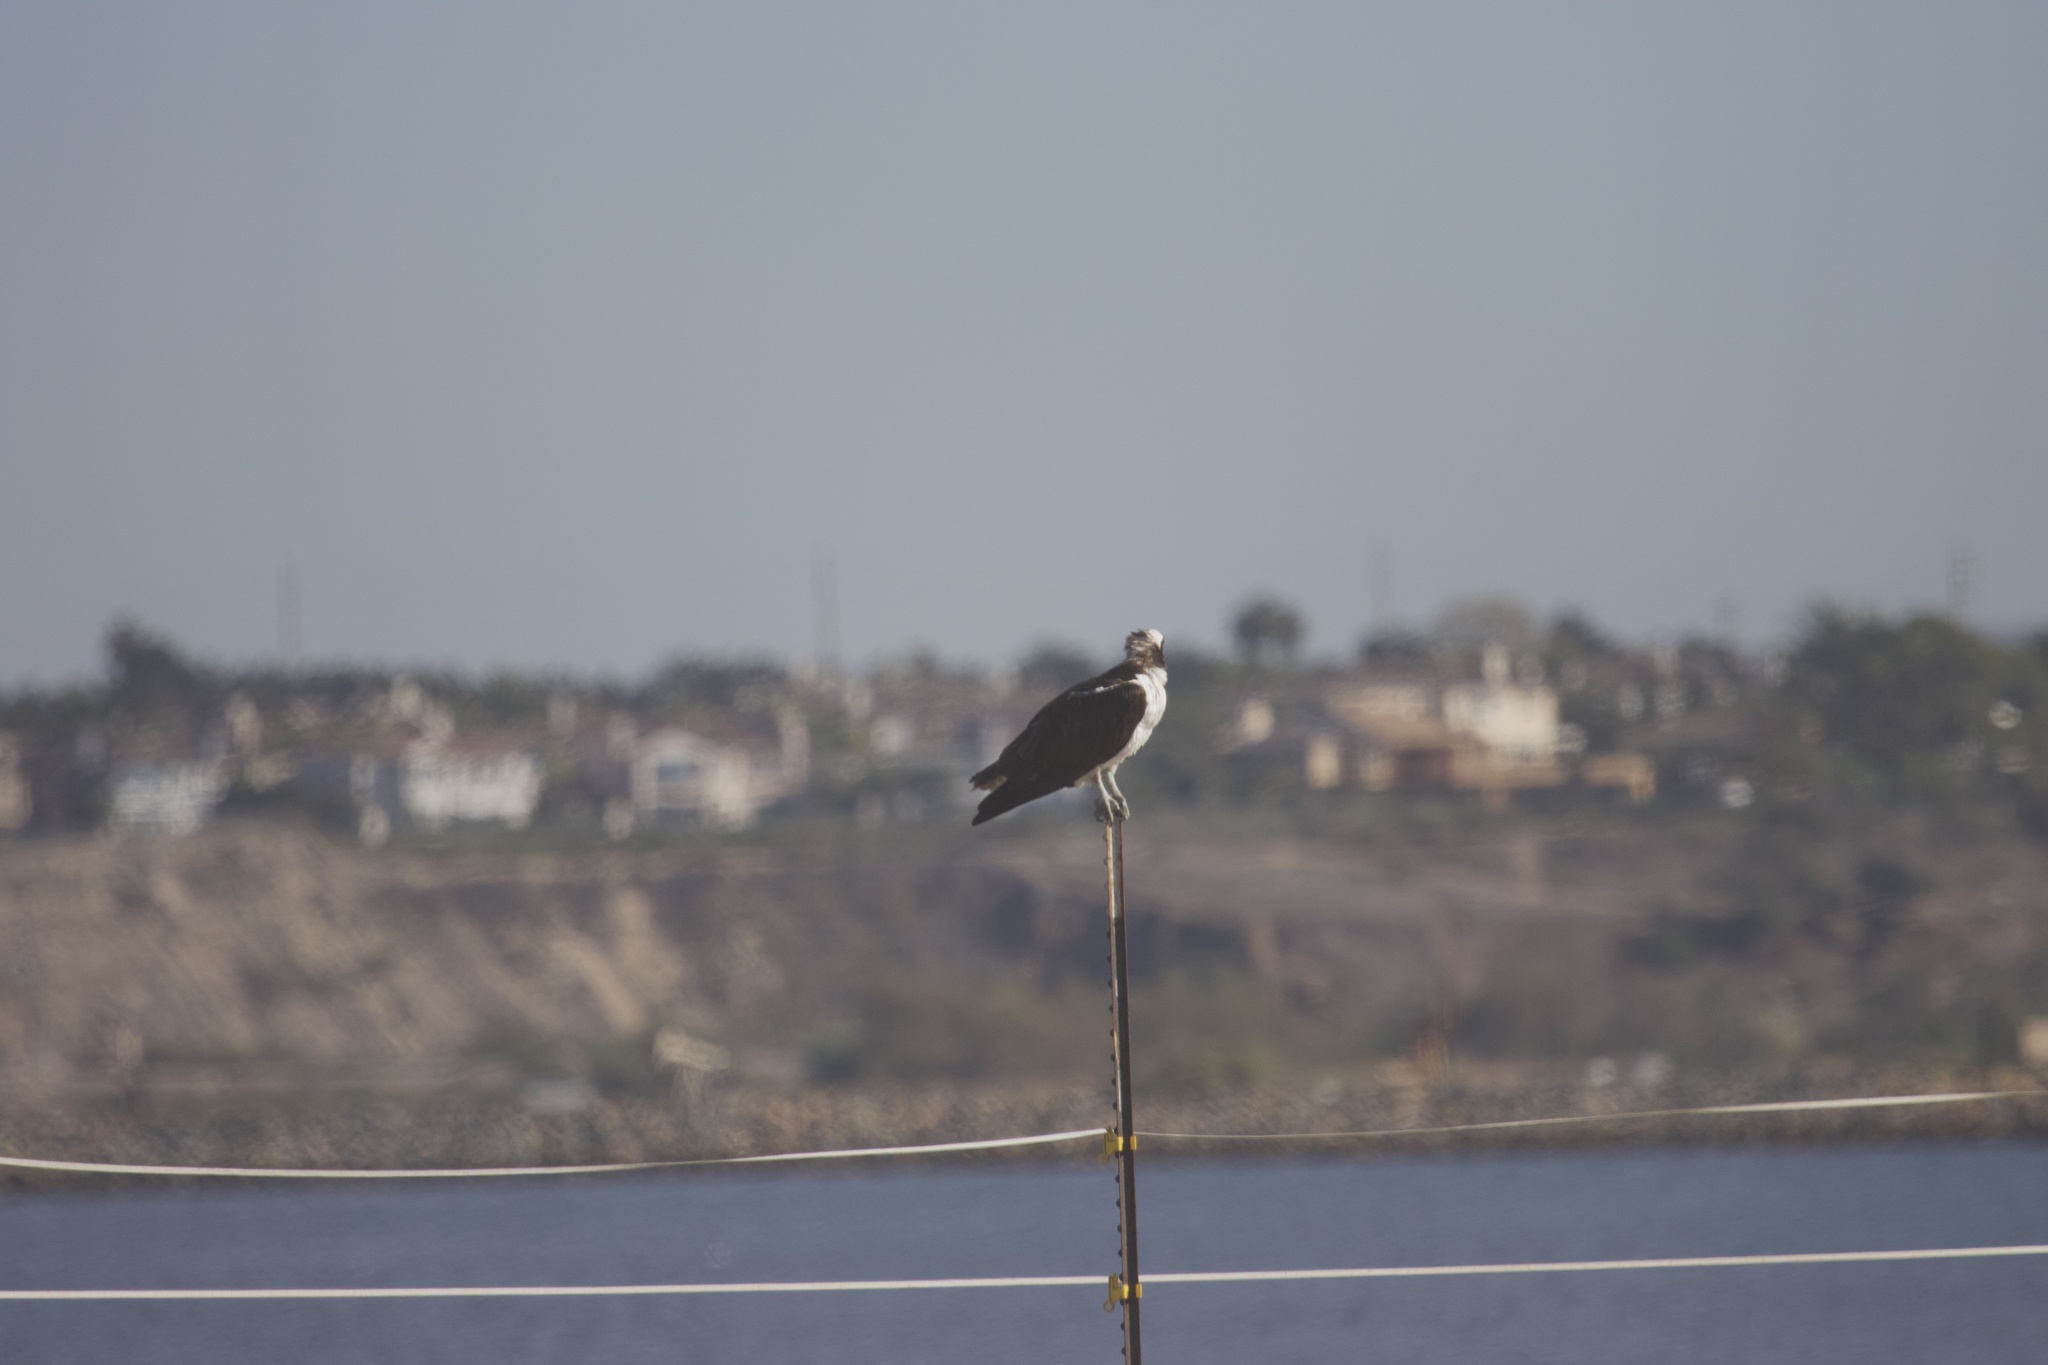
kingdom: Animalia
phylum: Chordata
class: Aves
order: Accipitriformes
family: Pandionidae
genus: Pandion
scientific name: Pandion haliaetus
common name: Osprey
